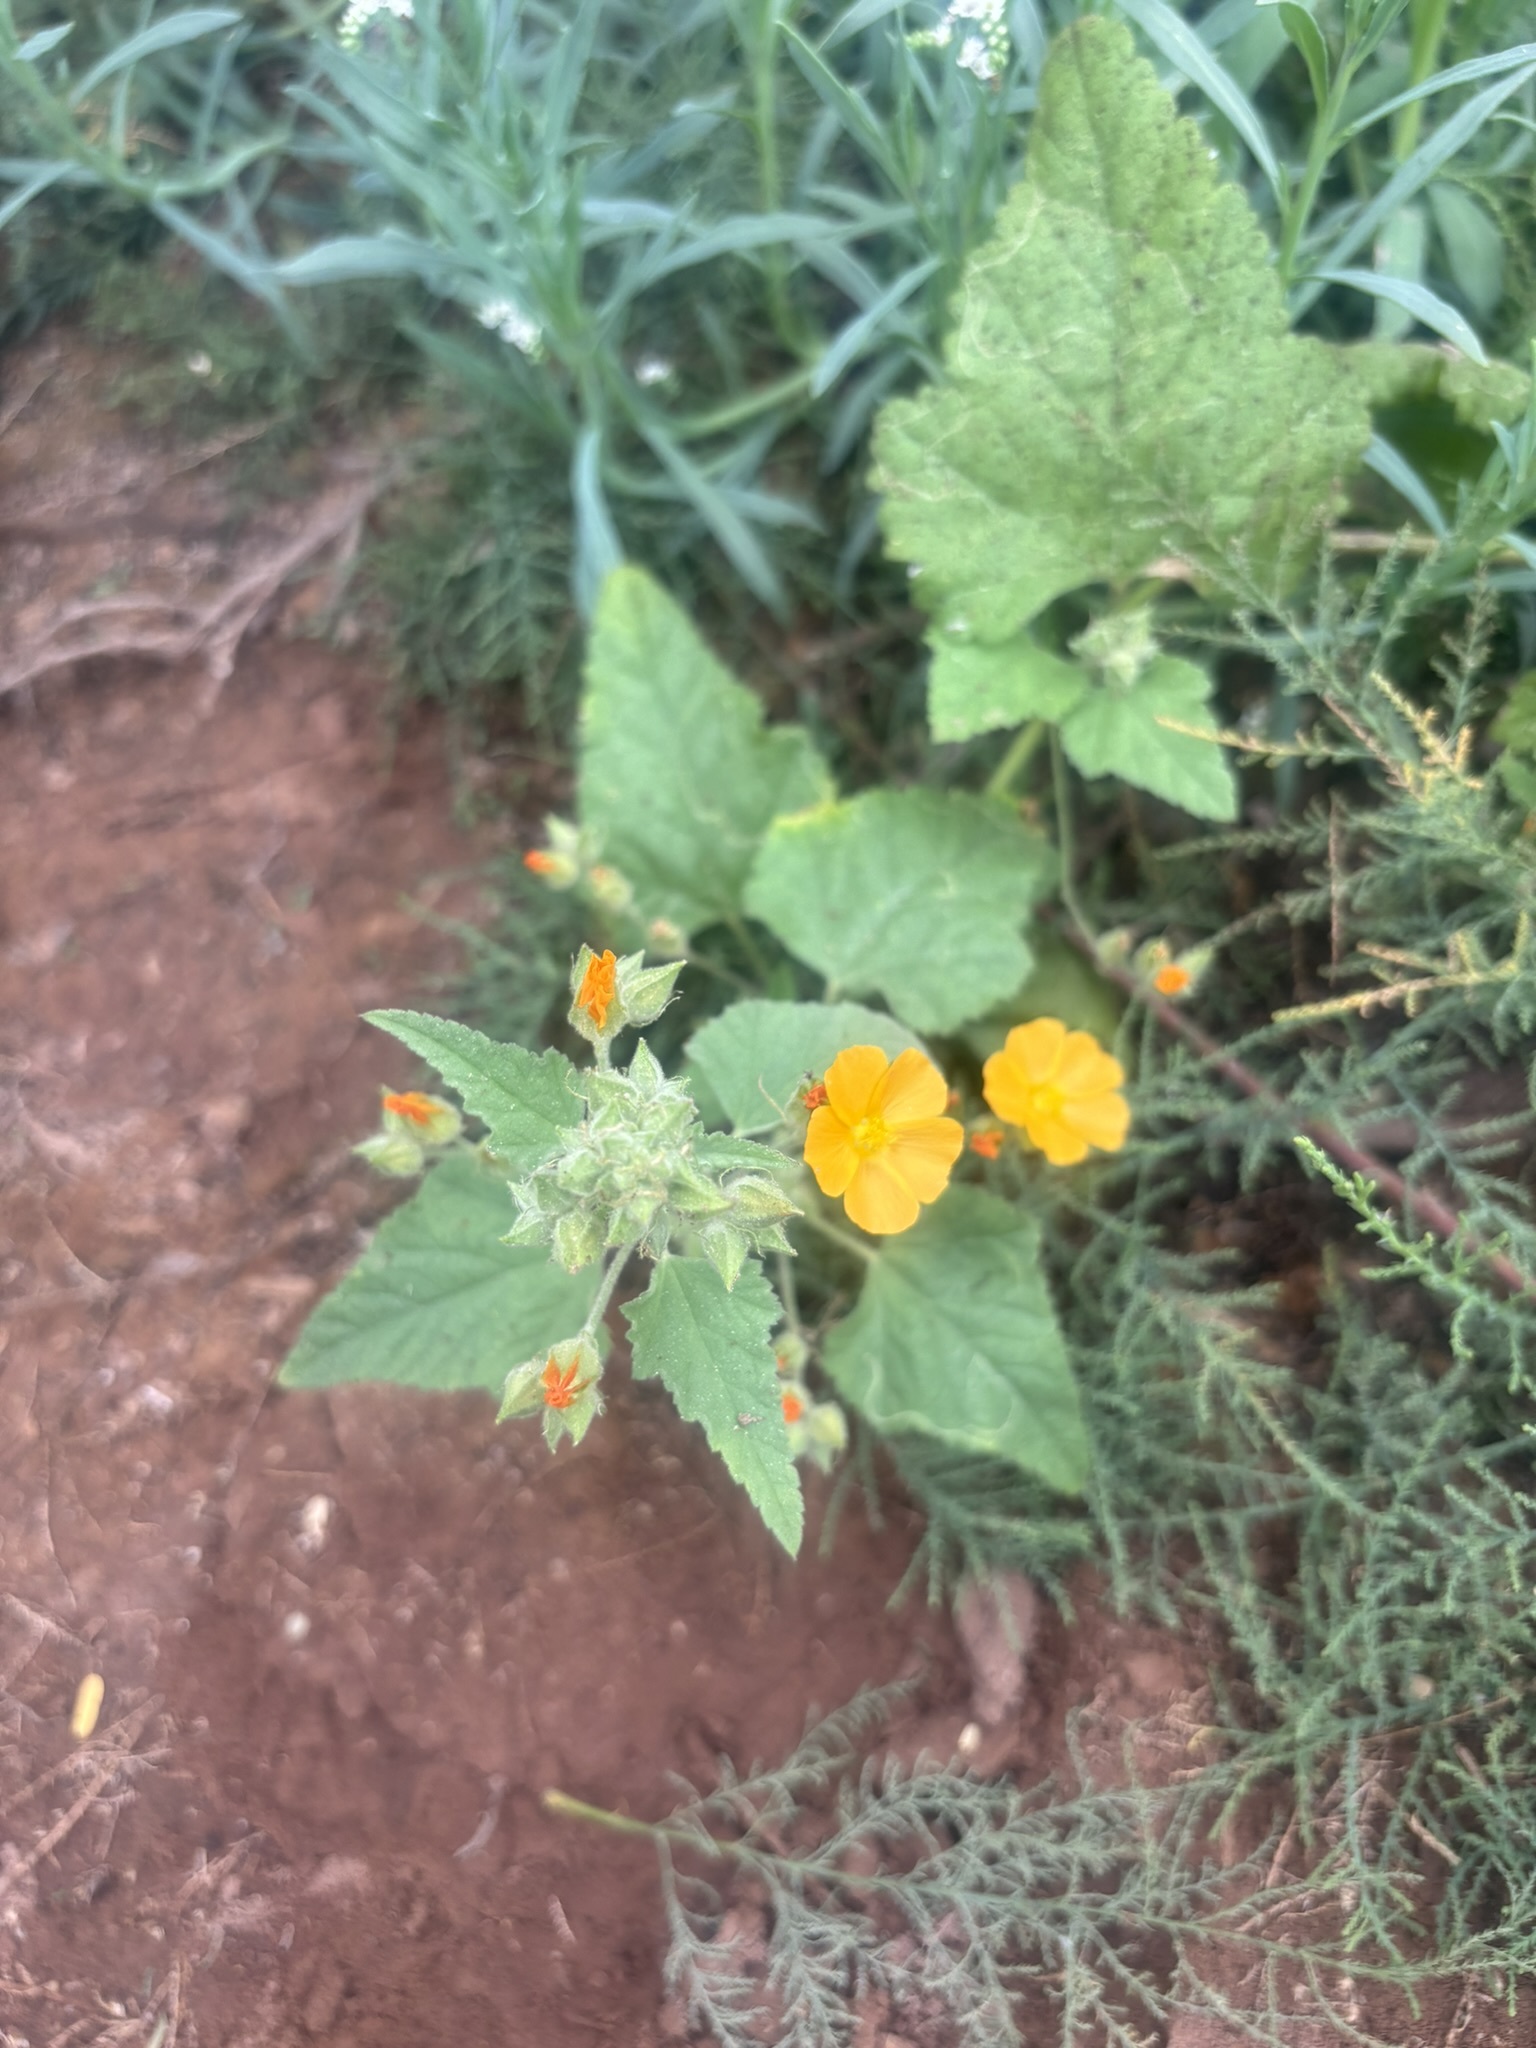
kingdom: Plantae
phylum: Tracheophyta
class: Magnoliopsida
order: Malvales
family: Malvaceae
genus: Sphaeralcea
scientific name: Sphaeralcea coulteri
